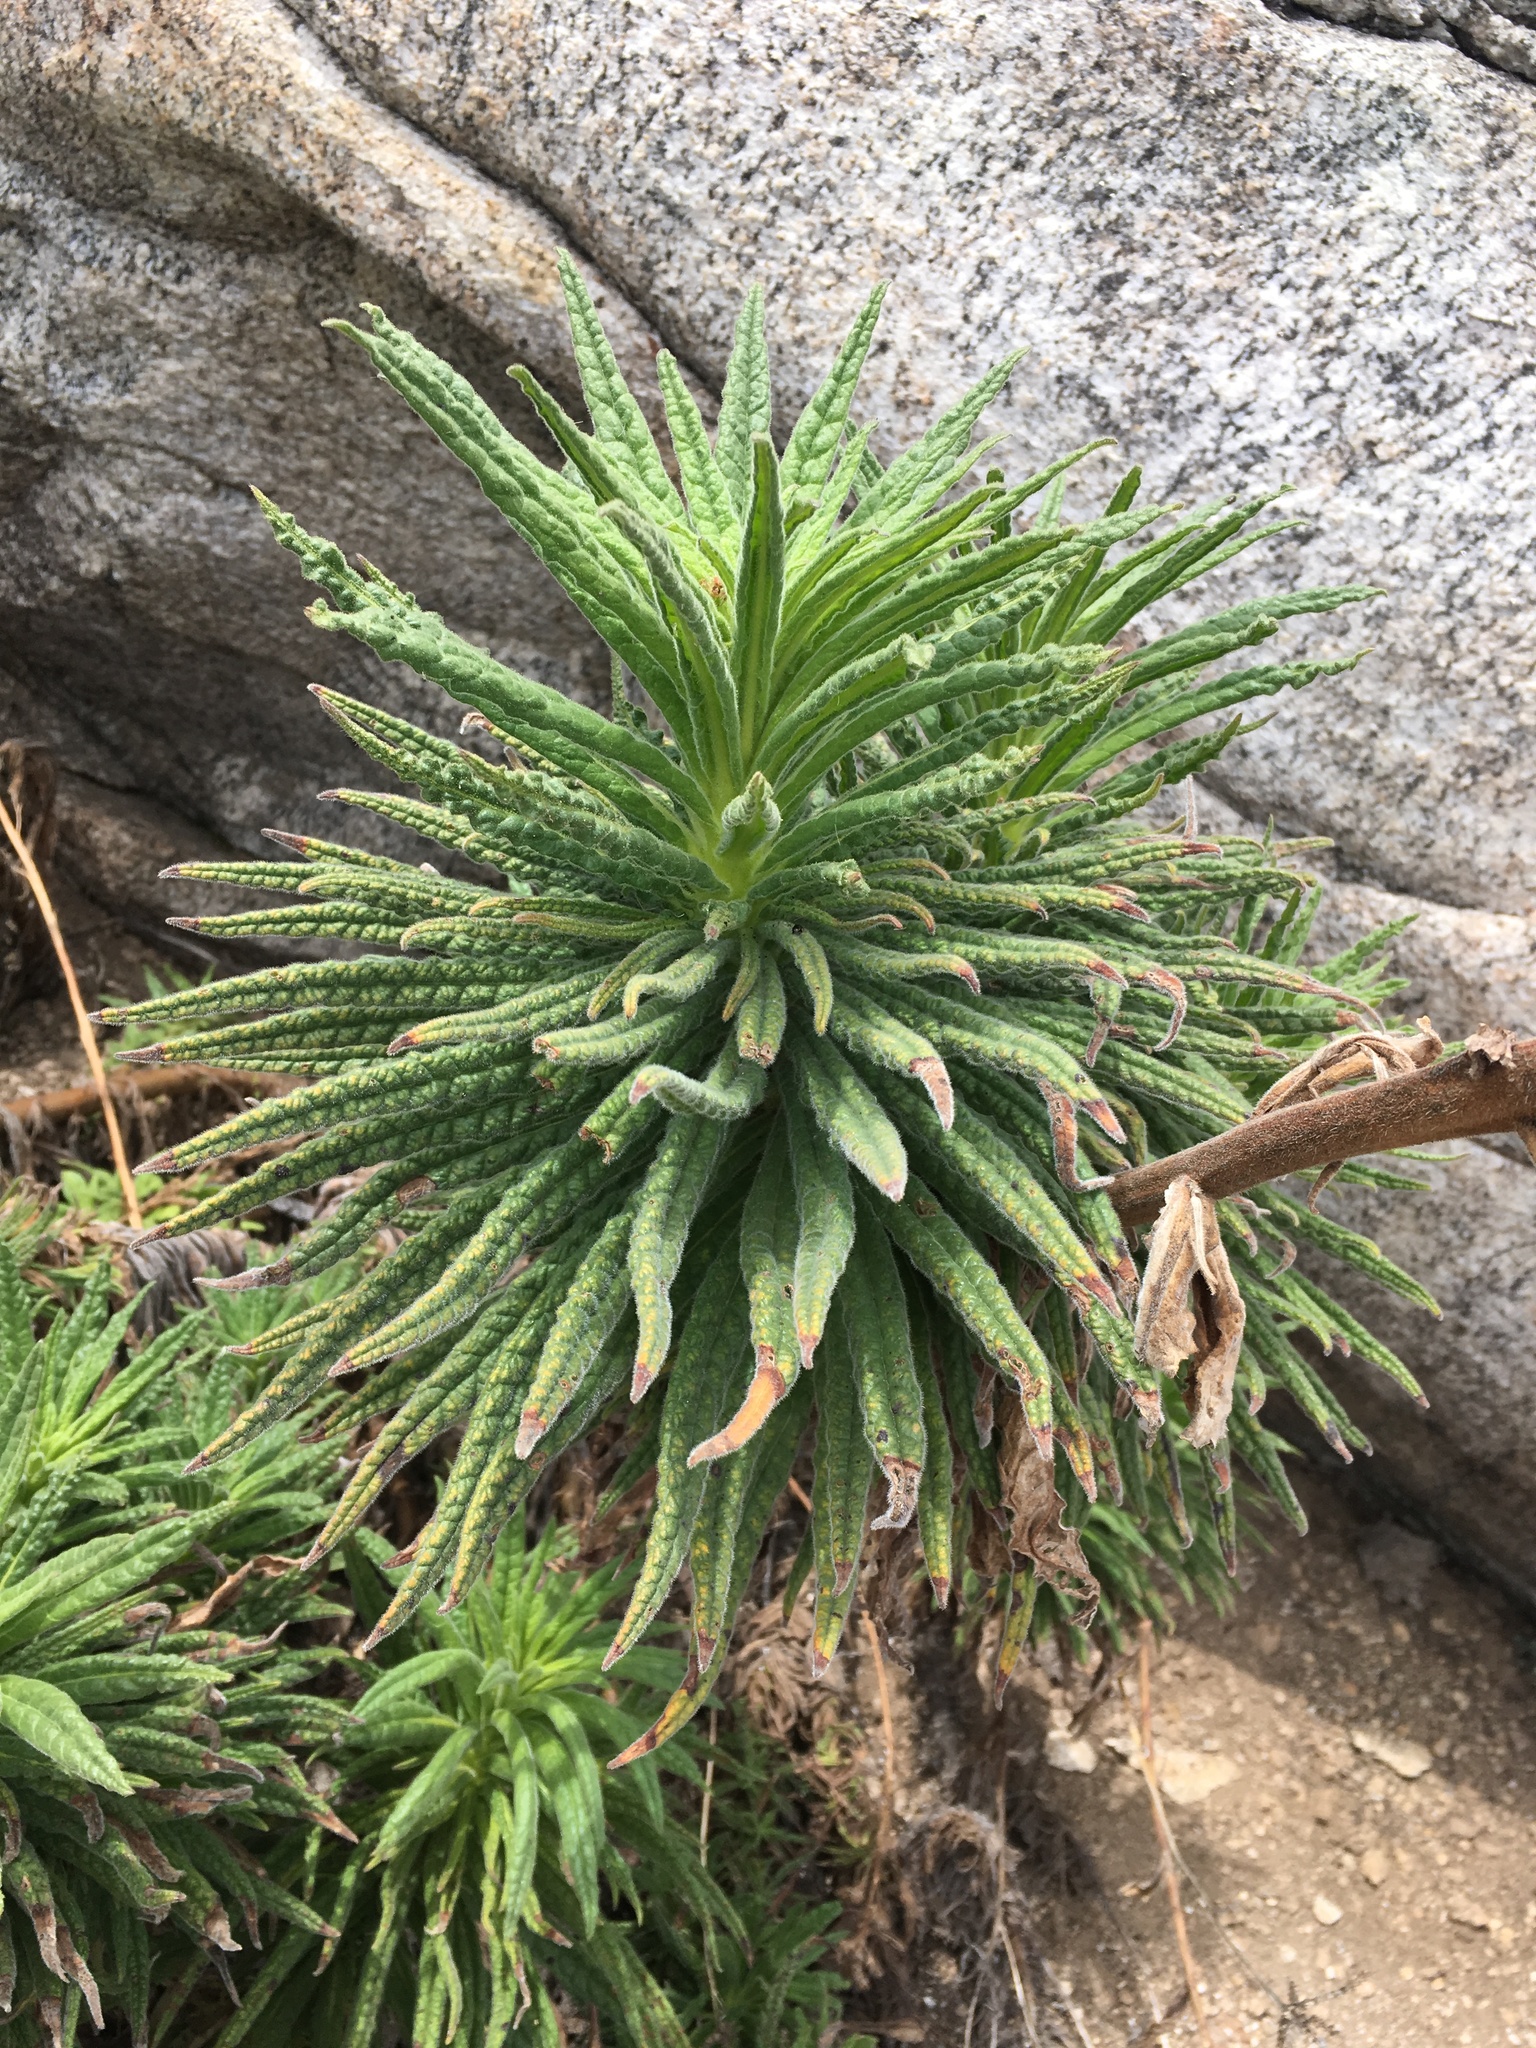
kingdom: Plantae
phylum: Tracheophyta
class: Magnoliopsida
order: Boraginales
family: Namaceae
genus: Turricula
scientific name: Turricula parryi
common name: Poodle-dog-bush
